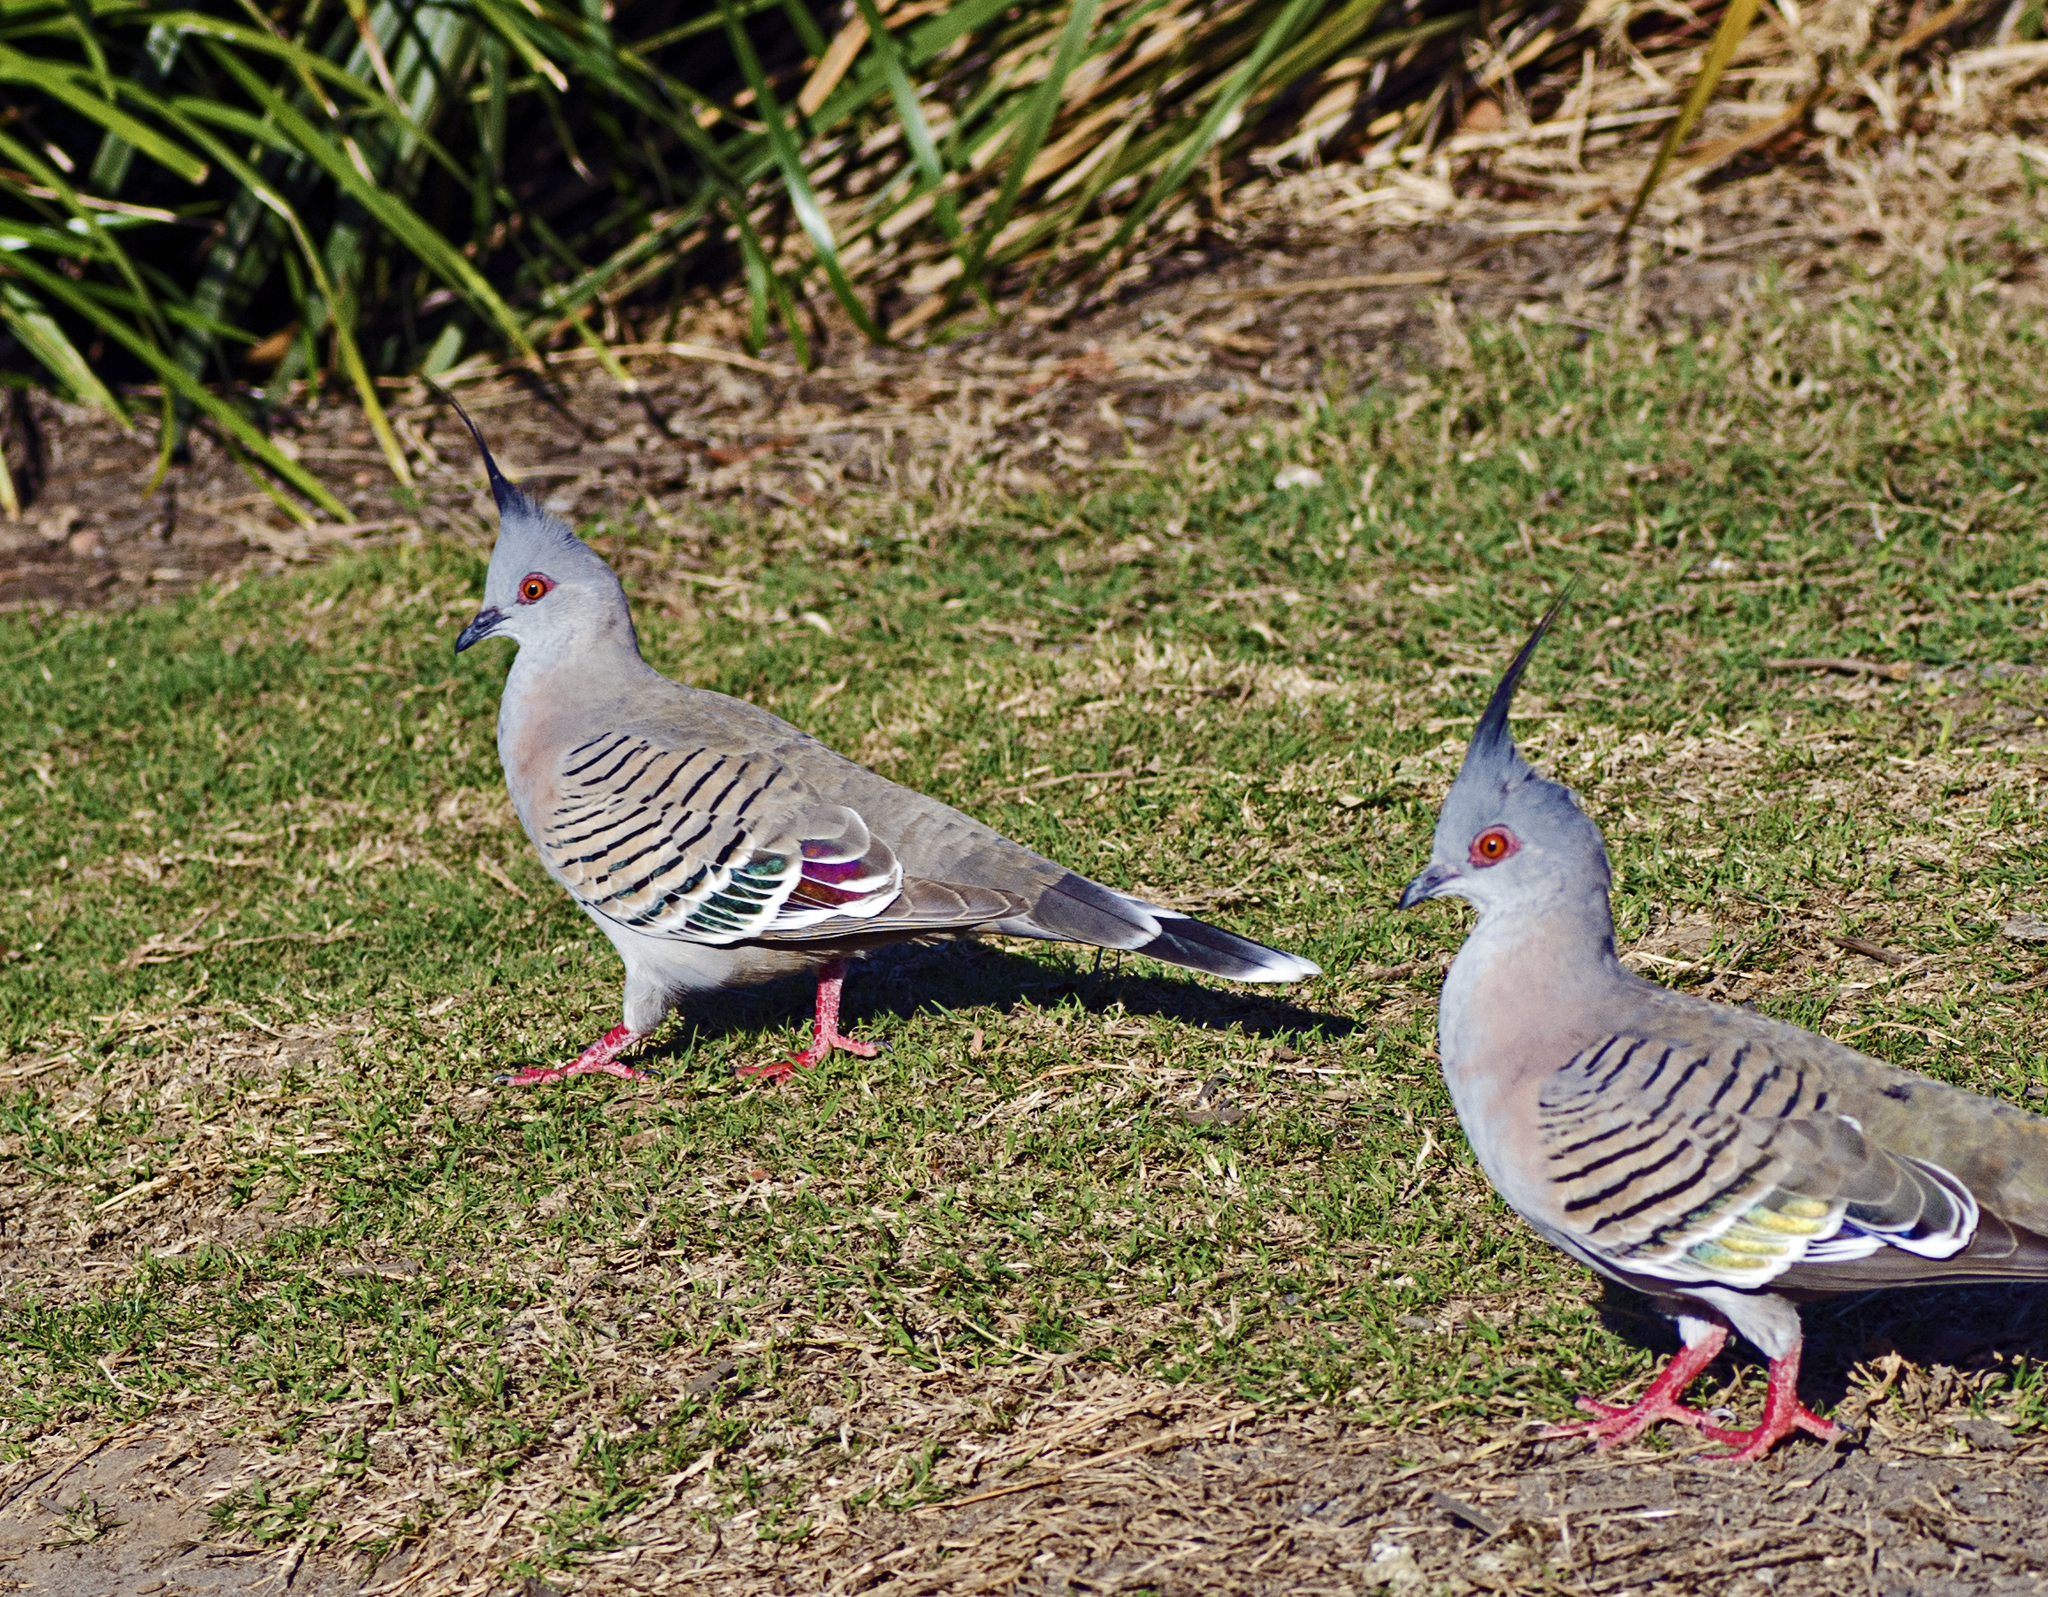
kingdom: Animalia
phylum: Chordata
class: Aves
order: Columbiformes
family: Columbidae
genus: Ocyphaps
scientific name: Ocyphaps lophotes
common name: Crested pigeon
